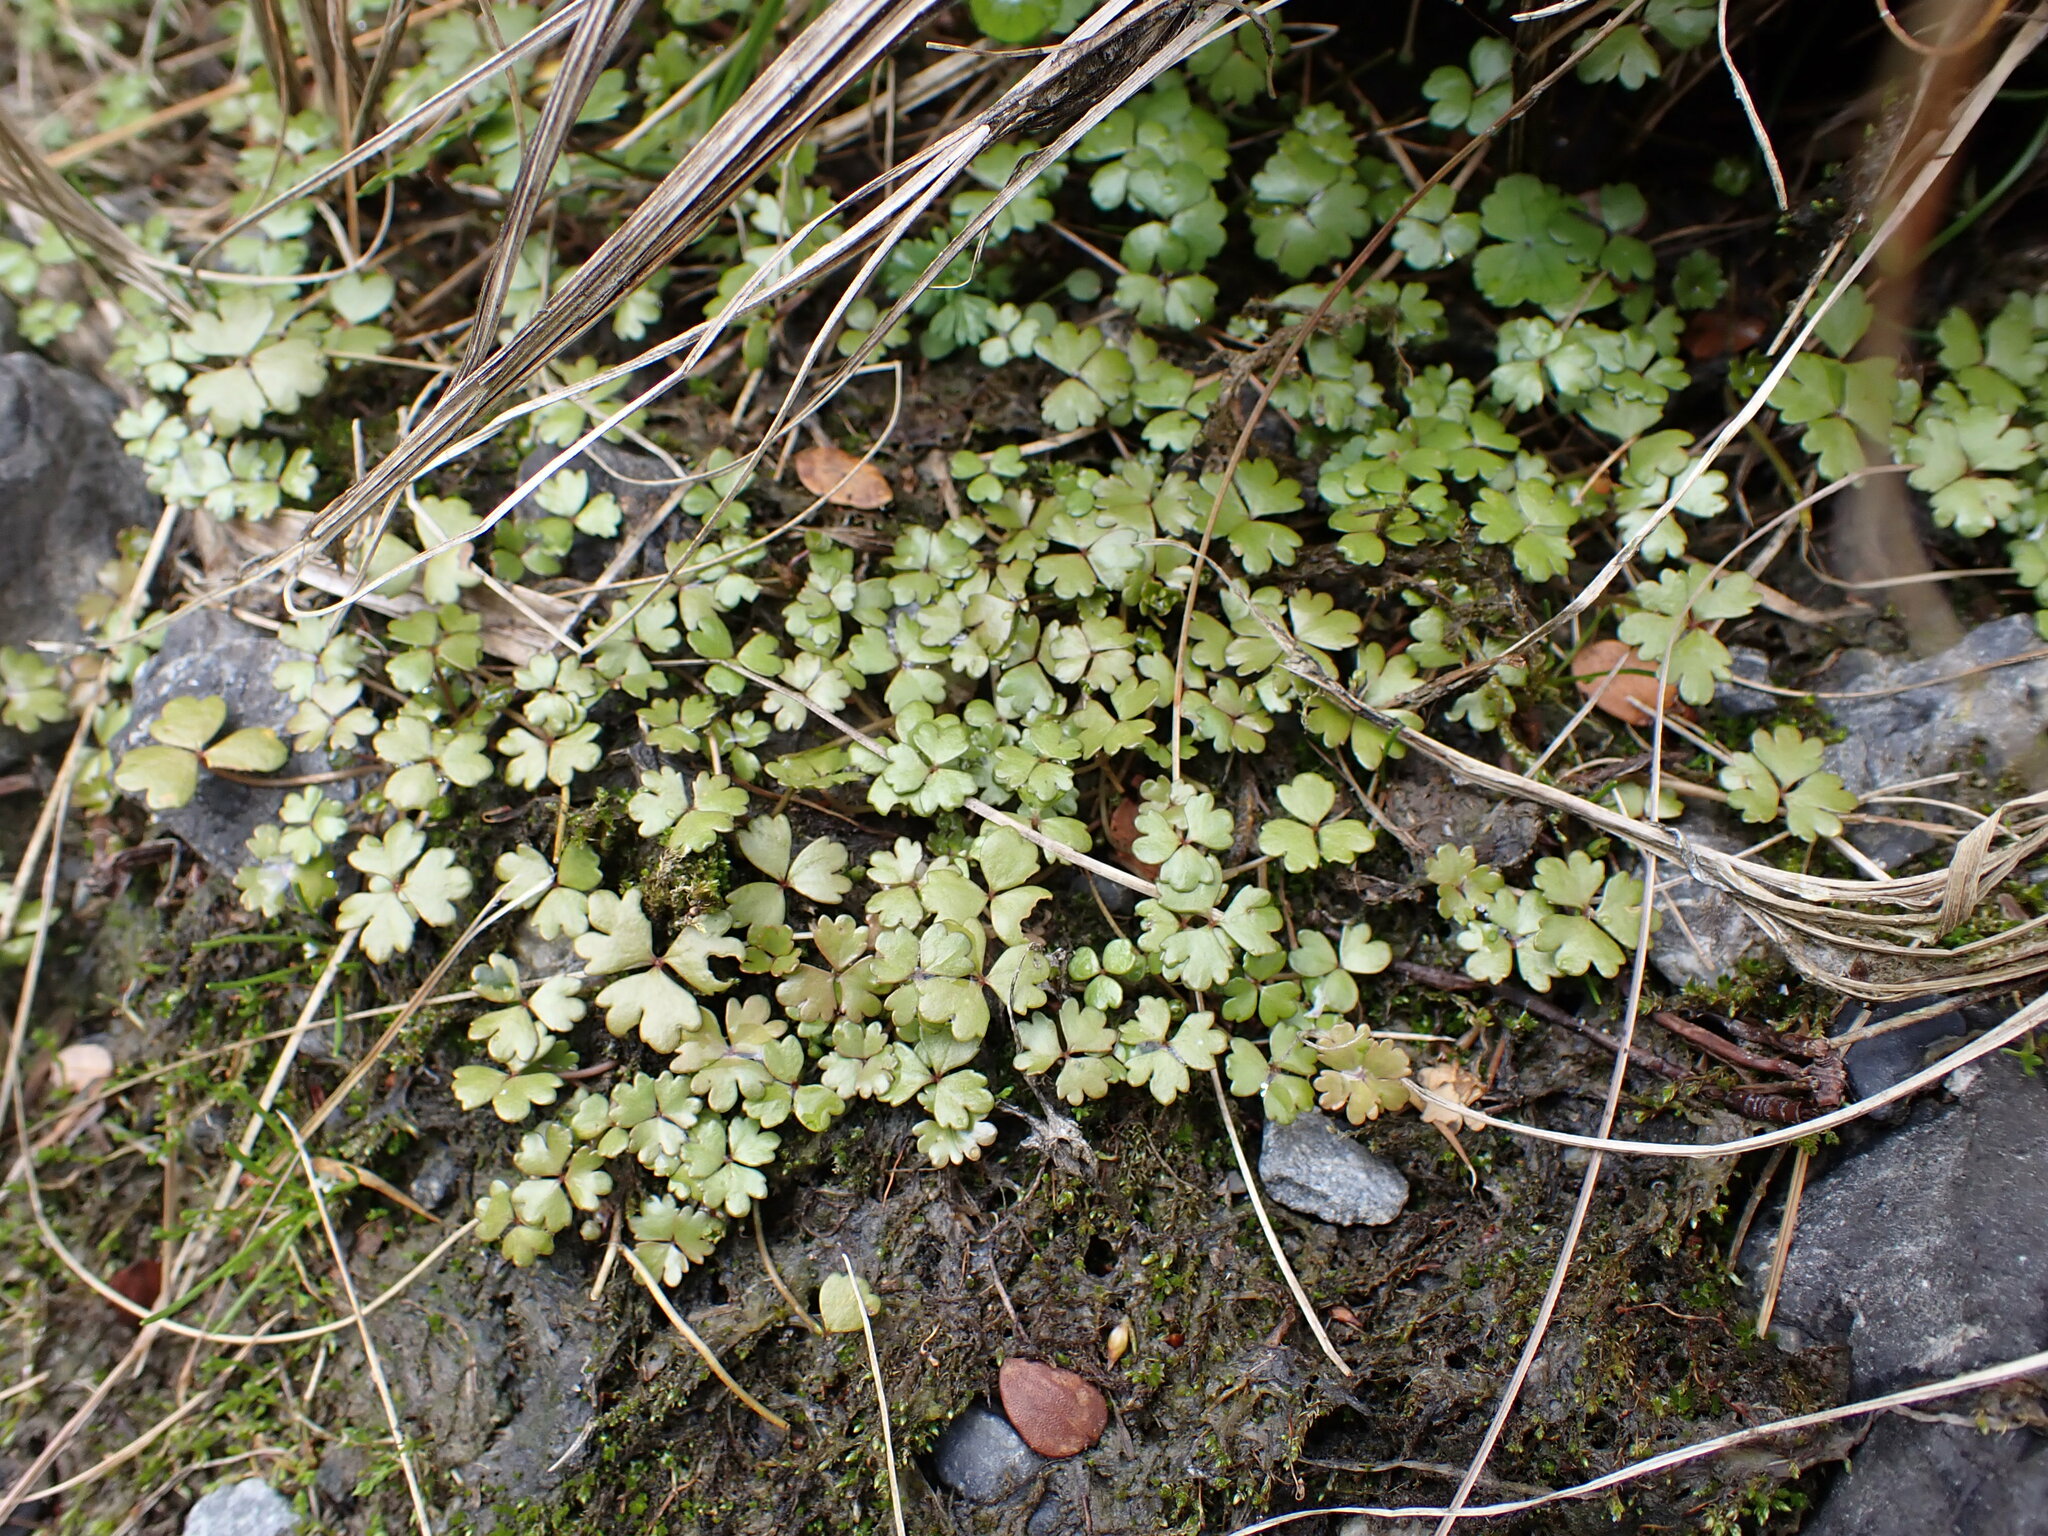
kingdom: Plantae
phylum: Tracheophyta
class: Magnoliopsida
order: Apiales
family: Araliaceae
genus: Hydrocotyle
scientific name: Hydrocotyle sulcata
